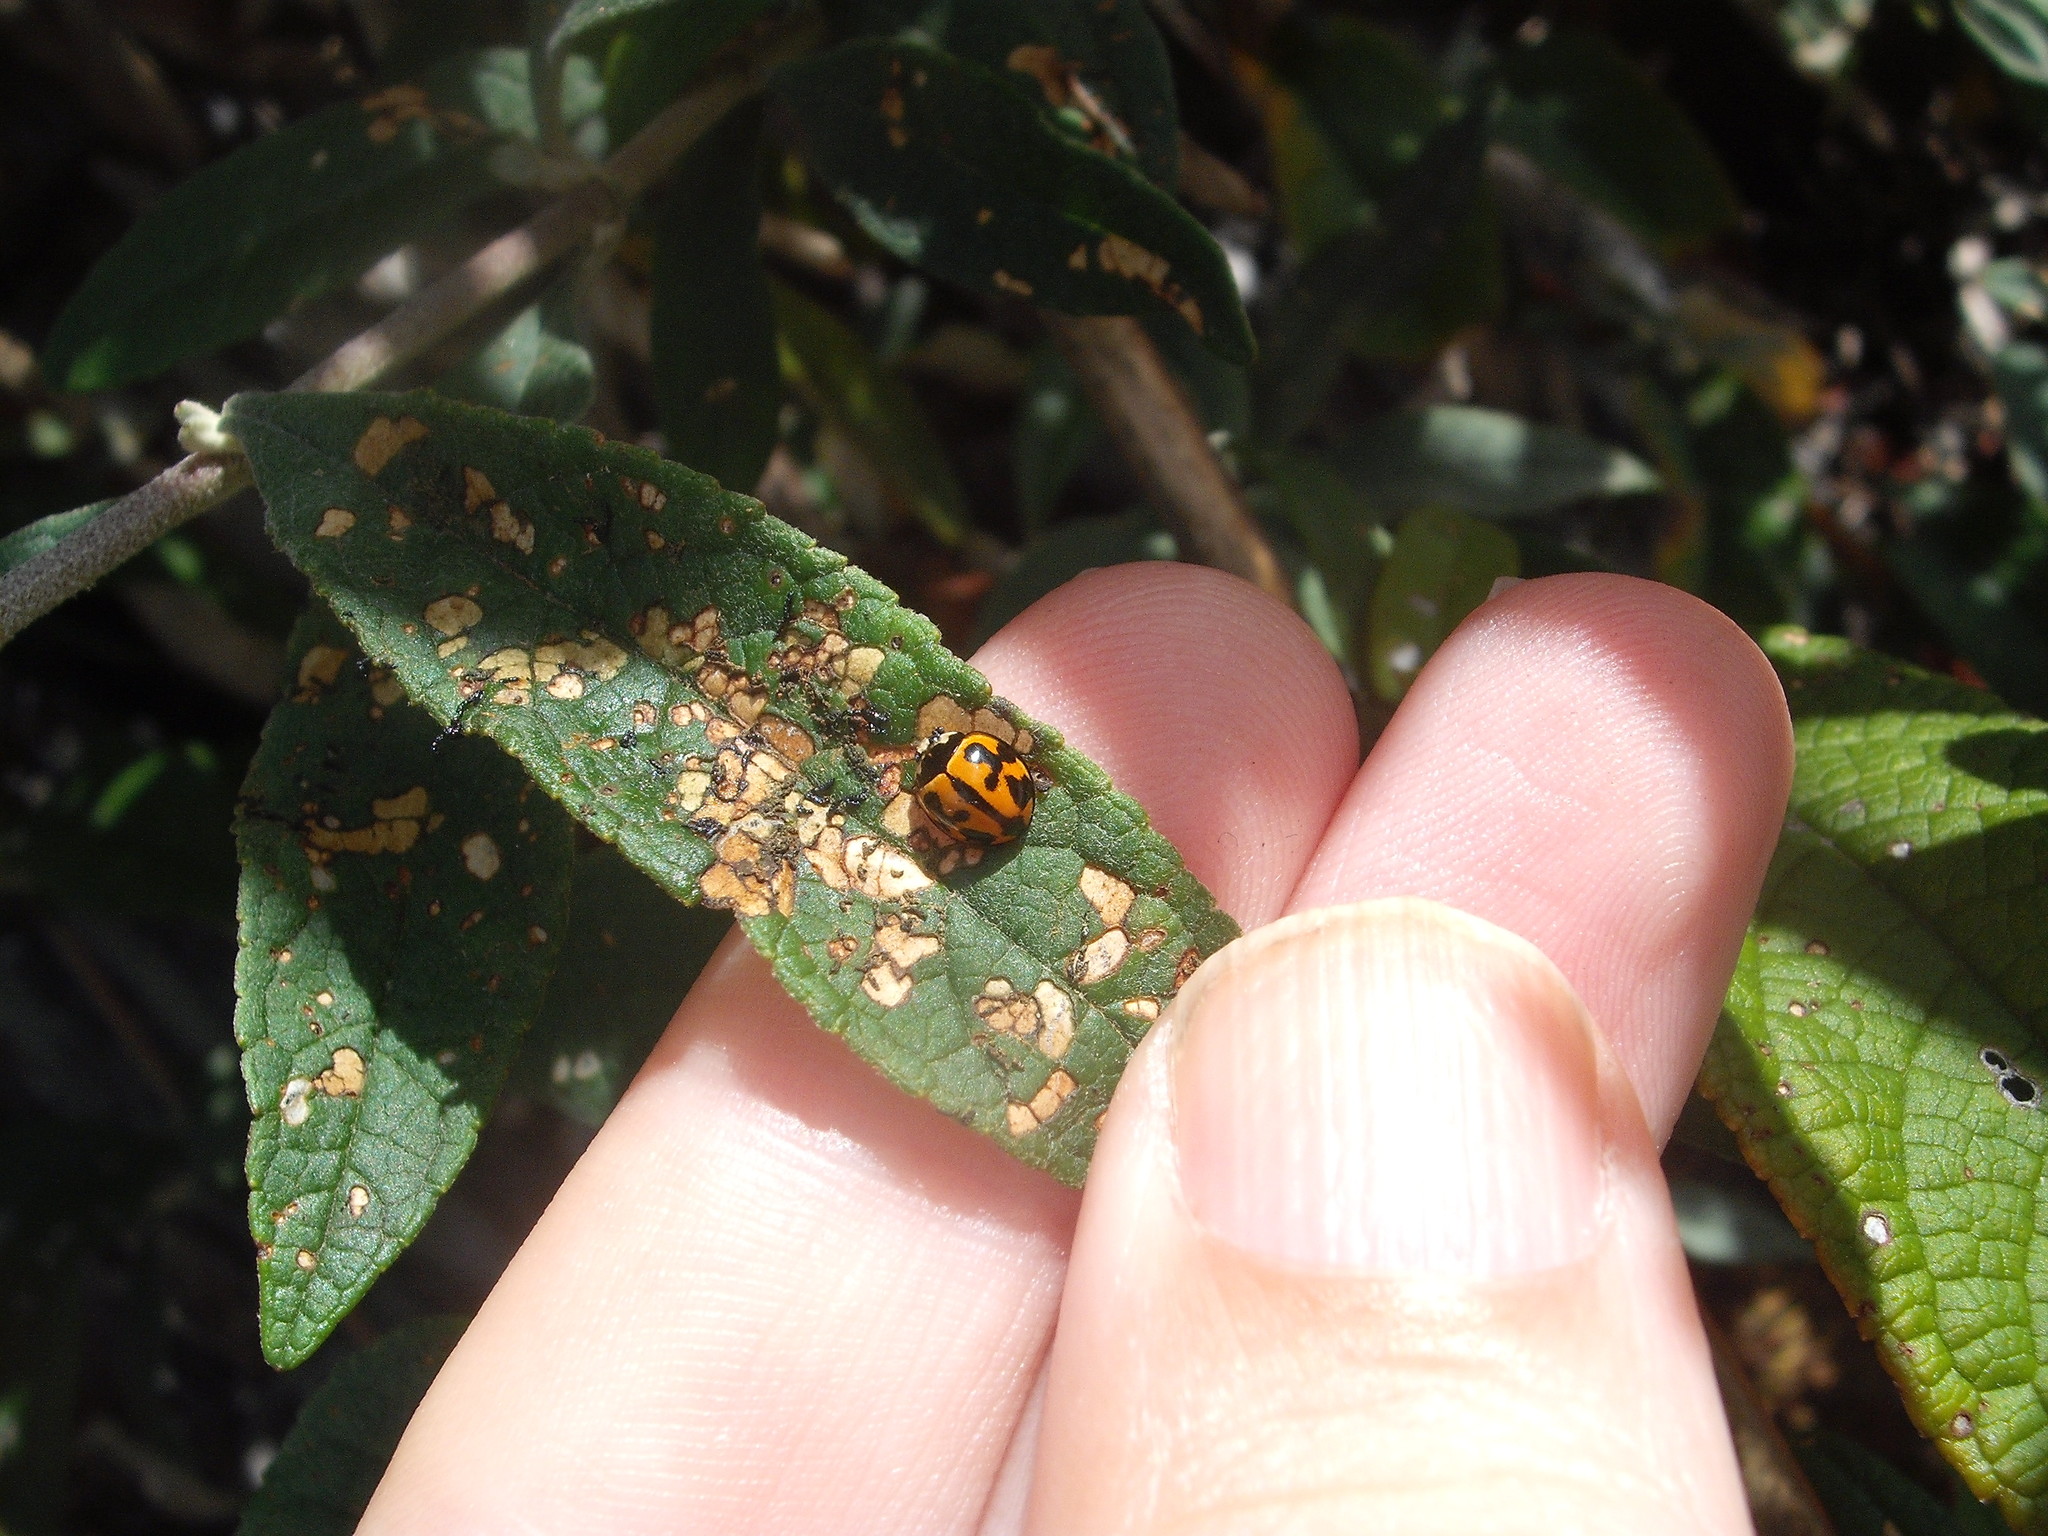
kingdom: Animalia
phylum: Arthropoda
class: Insecta
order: Coleoptera
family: Coccinellidae
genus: Coelophora
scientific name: Coelophora inaequalis
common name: Common australian lady beetle
